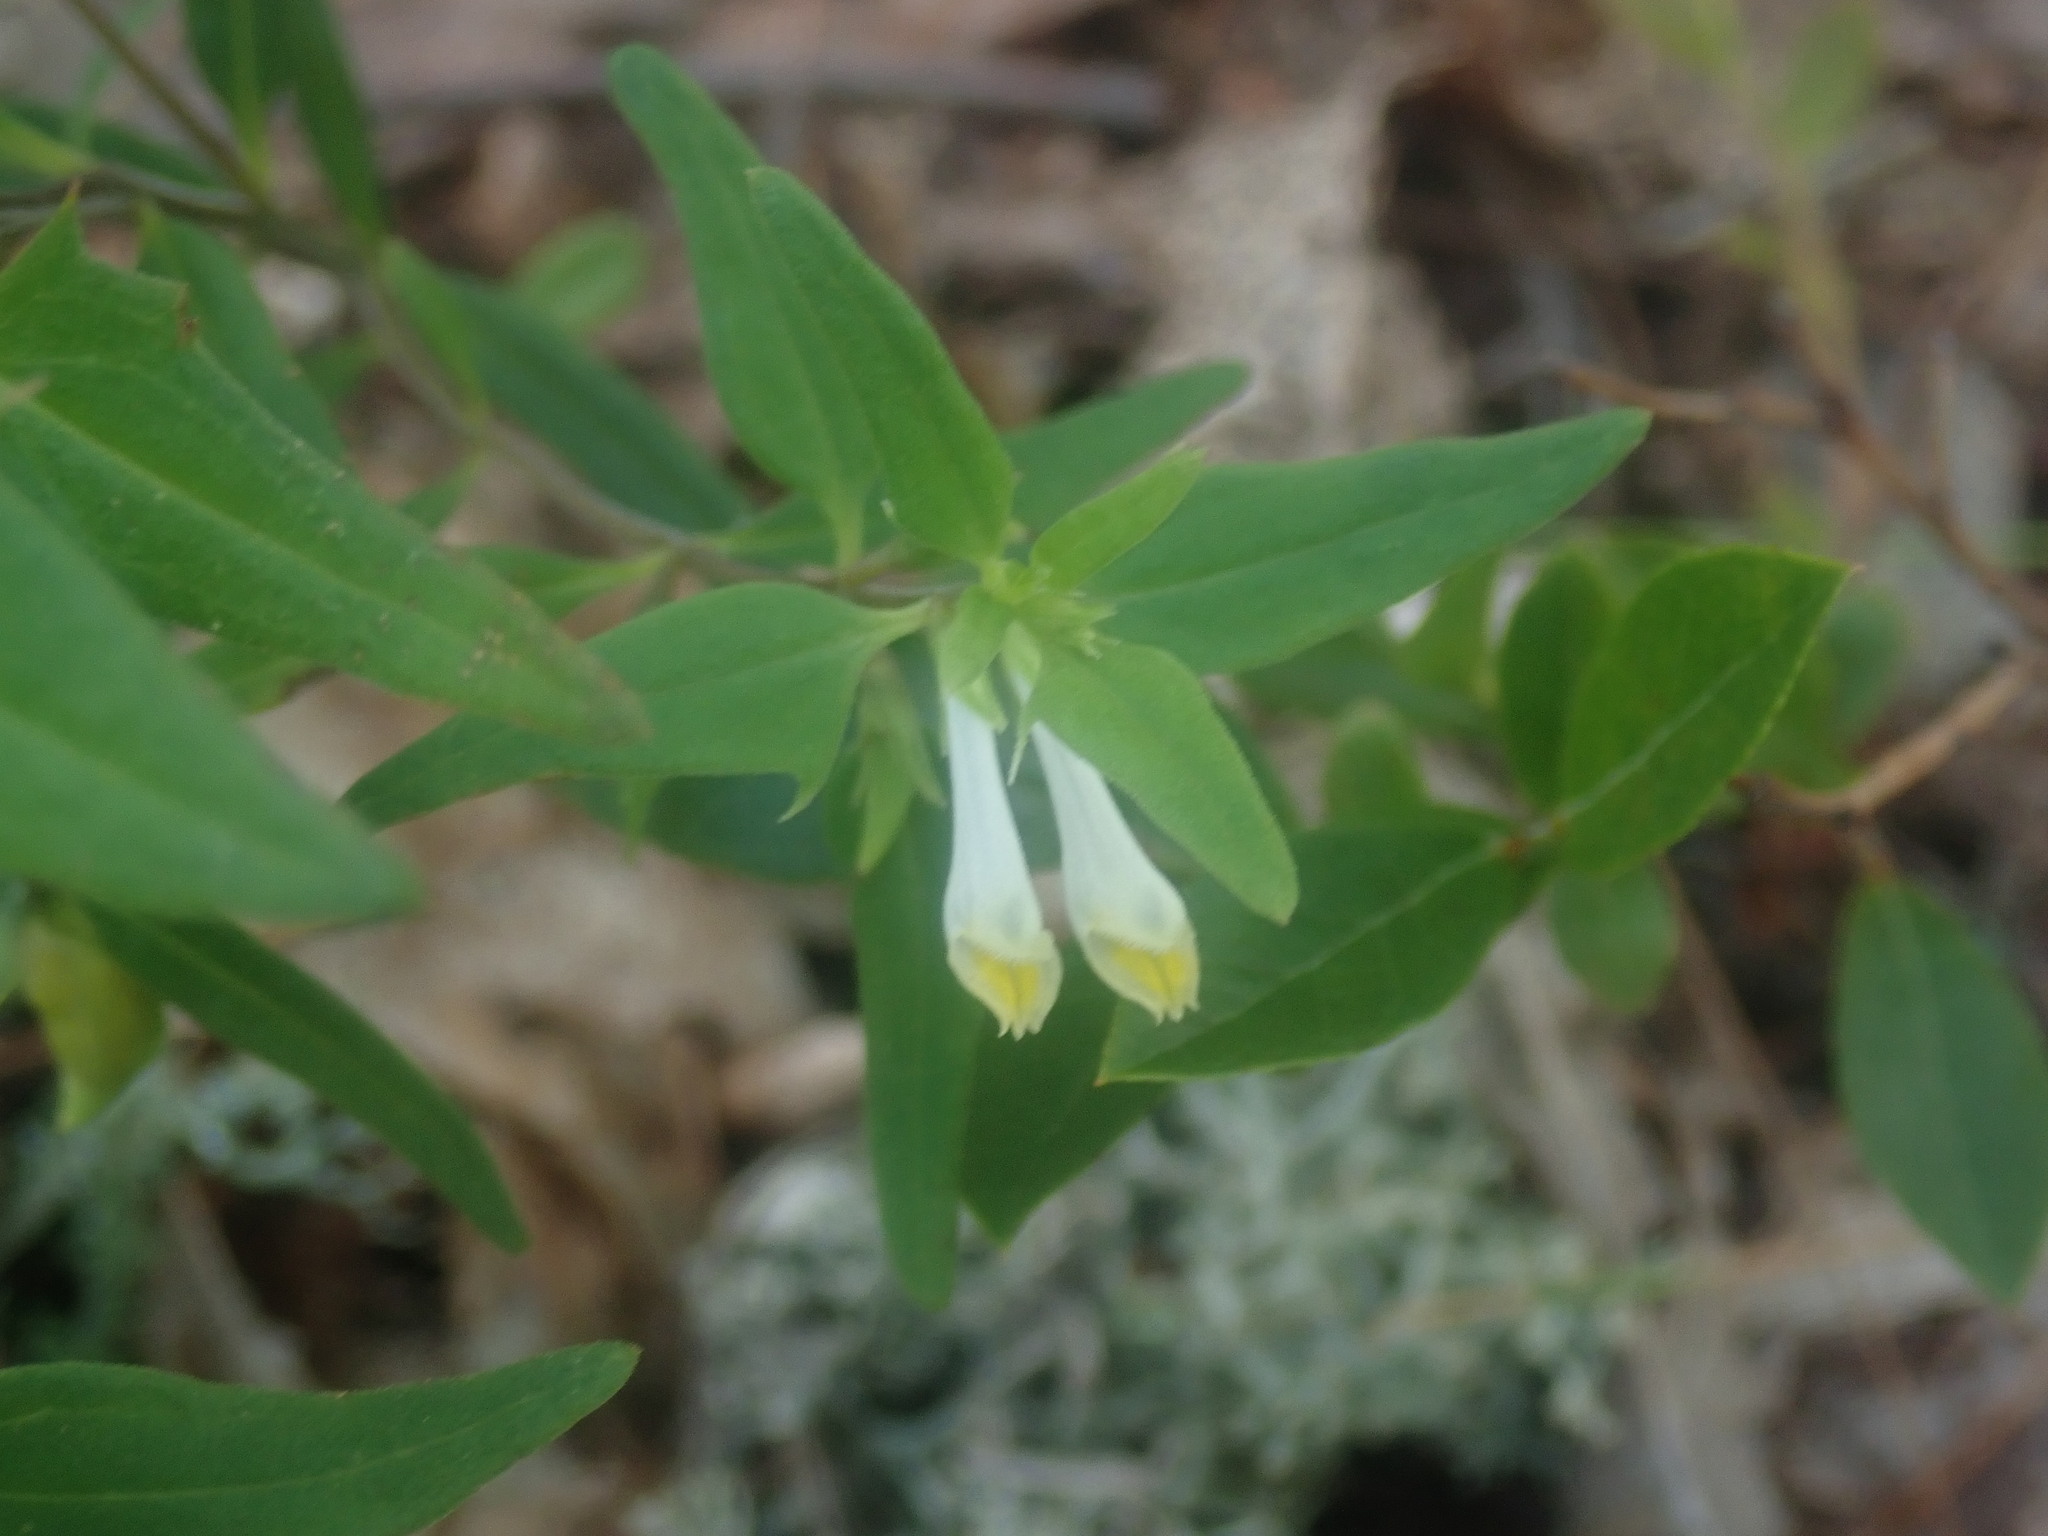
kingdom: Plantae
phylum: Tracheophyta
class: Magnoliopsida
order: Lamiales
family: Orobanchaceae
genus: Melampyrum
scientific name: Melampyrum lineare
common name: American cow-wheat
